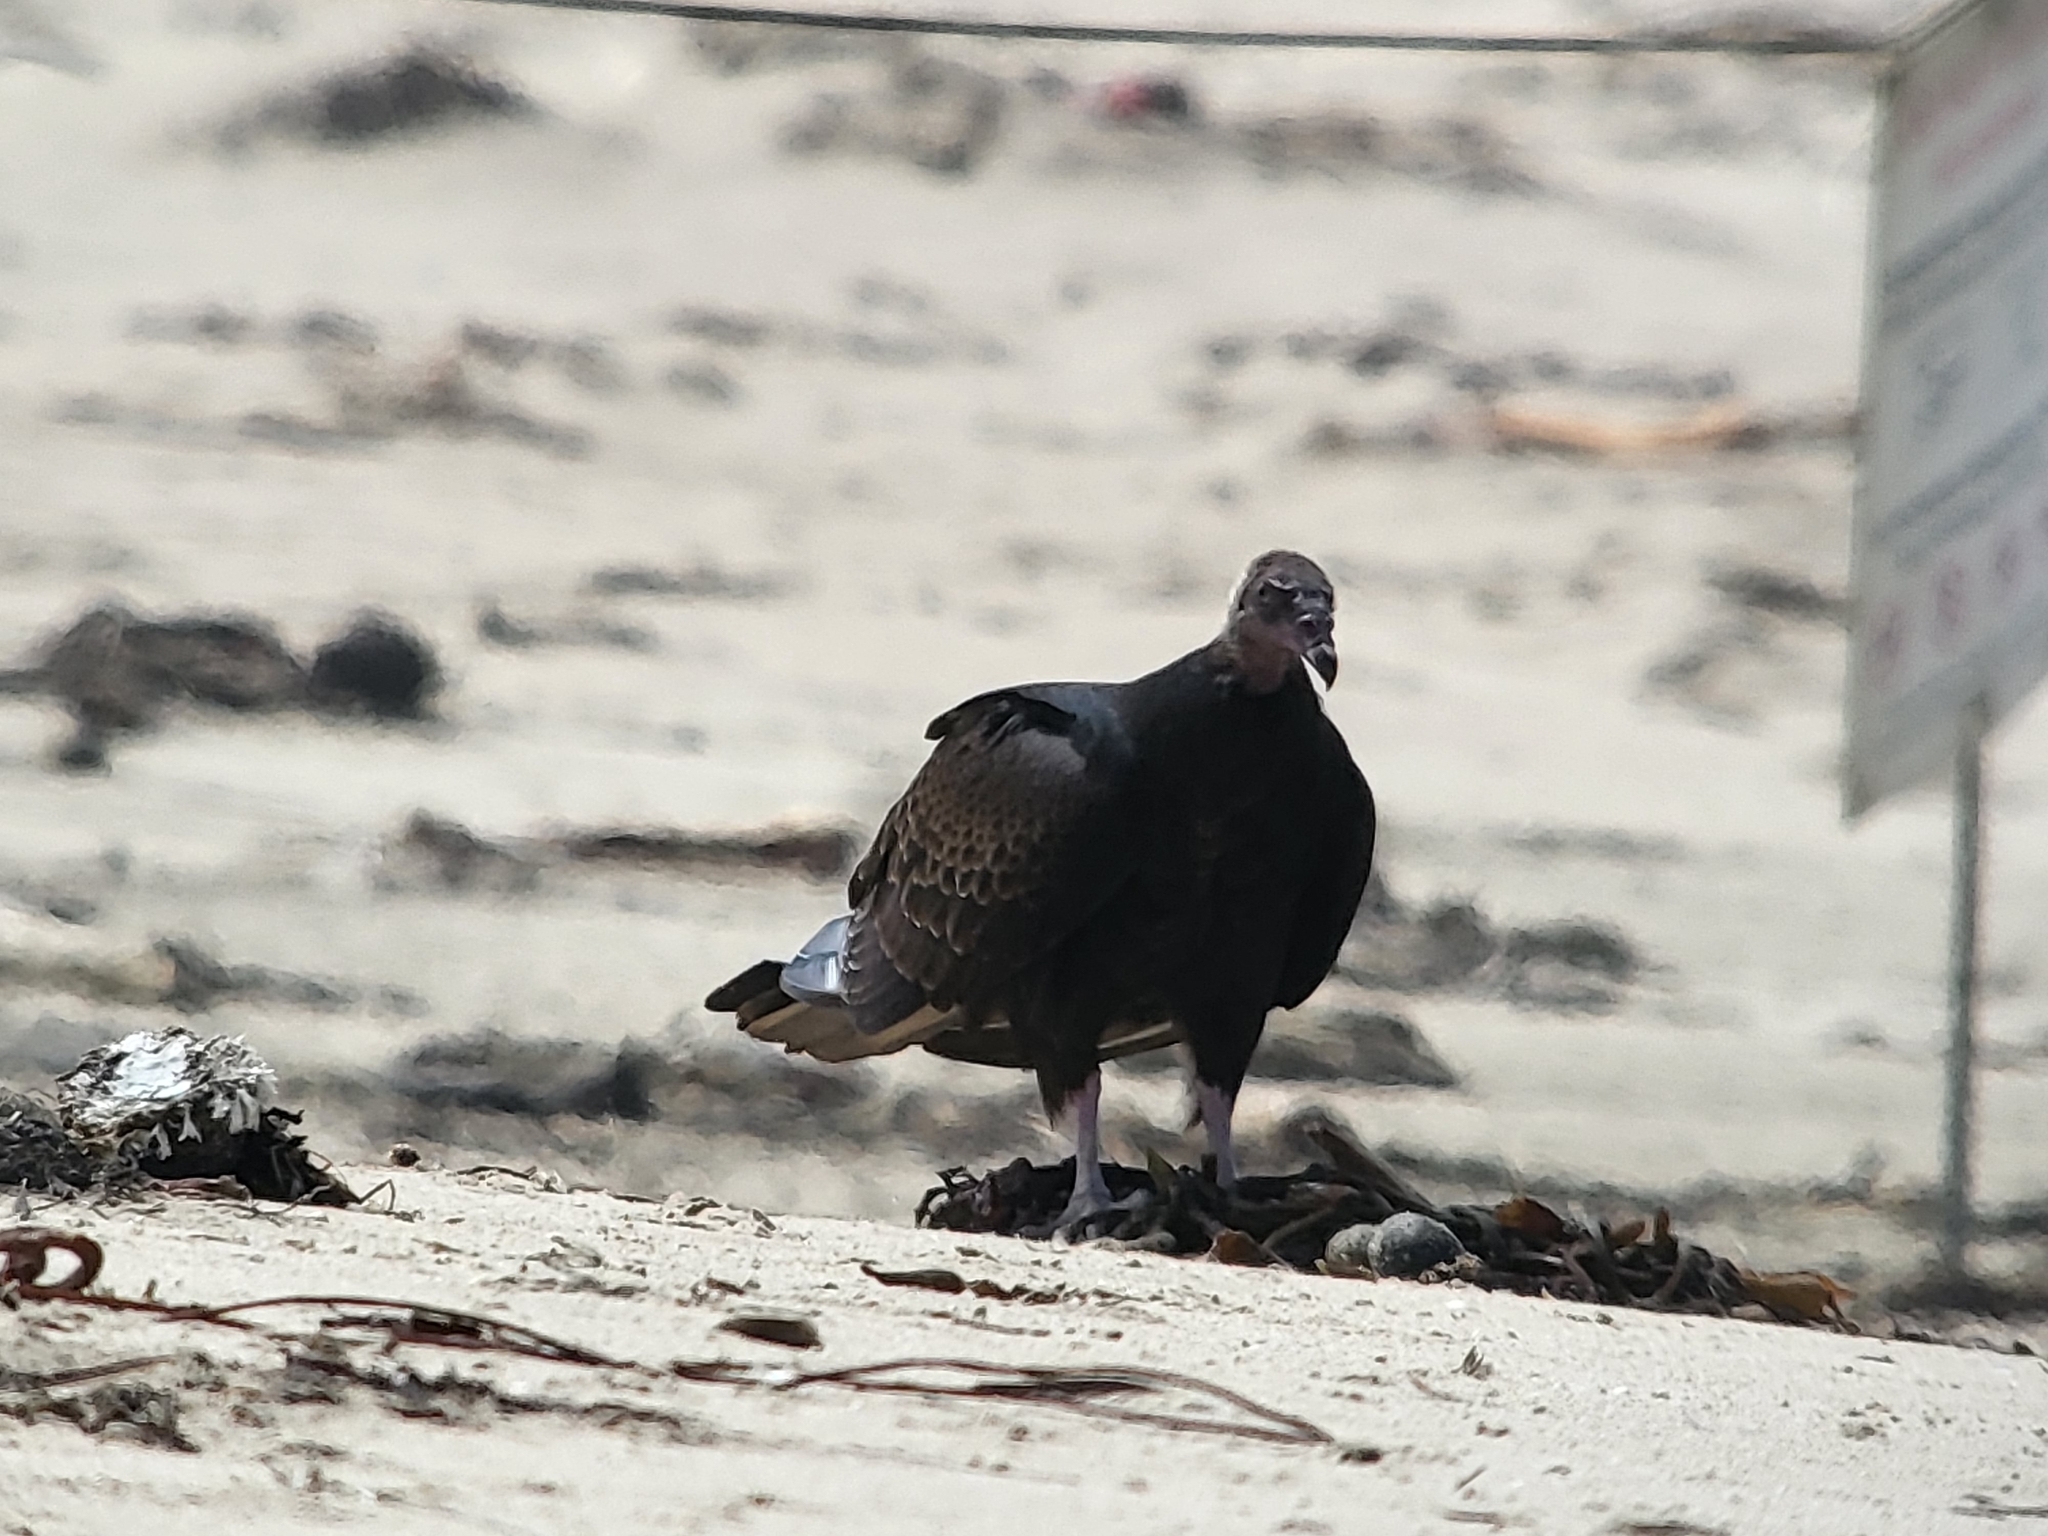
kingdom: Animalia
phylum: Chordata
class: Aves
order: Accipitriformes
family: Cathartidae
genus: Cathartes
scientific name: Cathartes aura
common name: Turkey vulture
